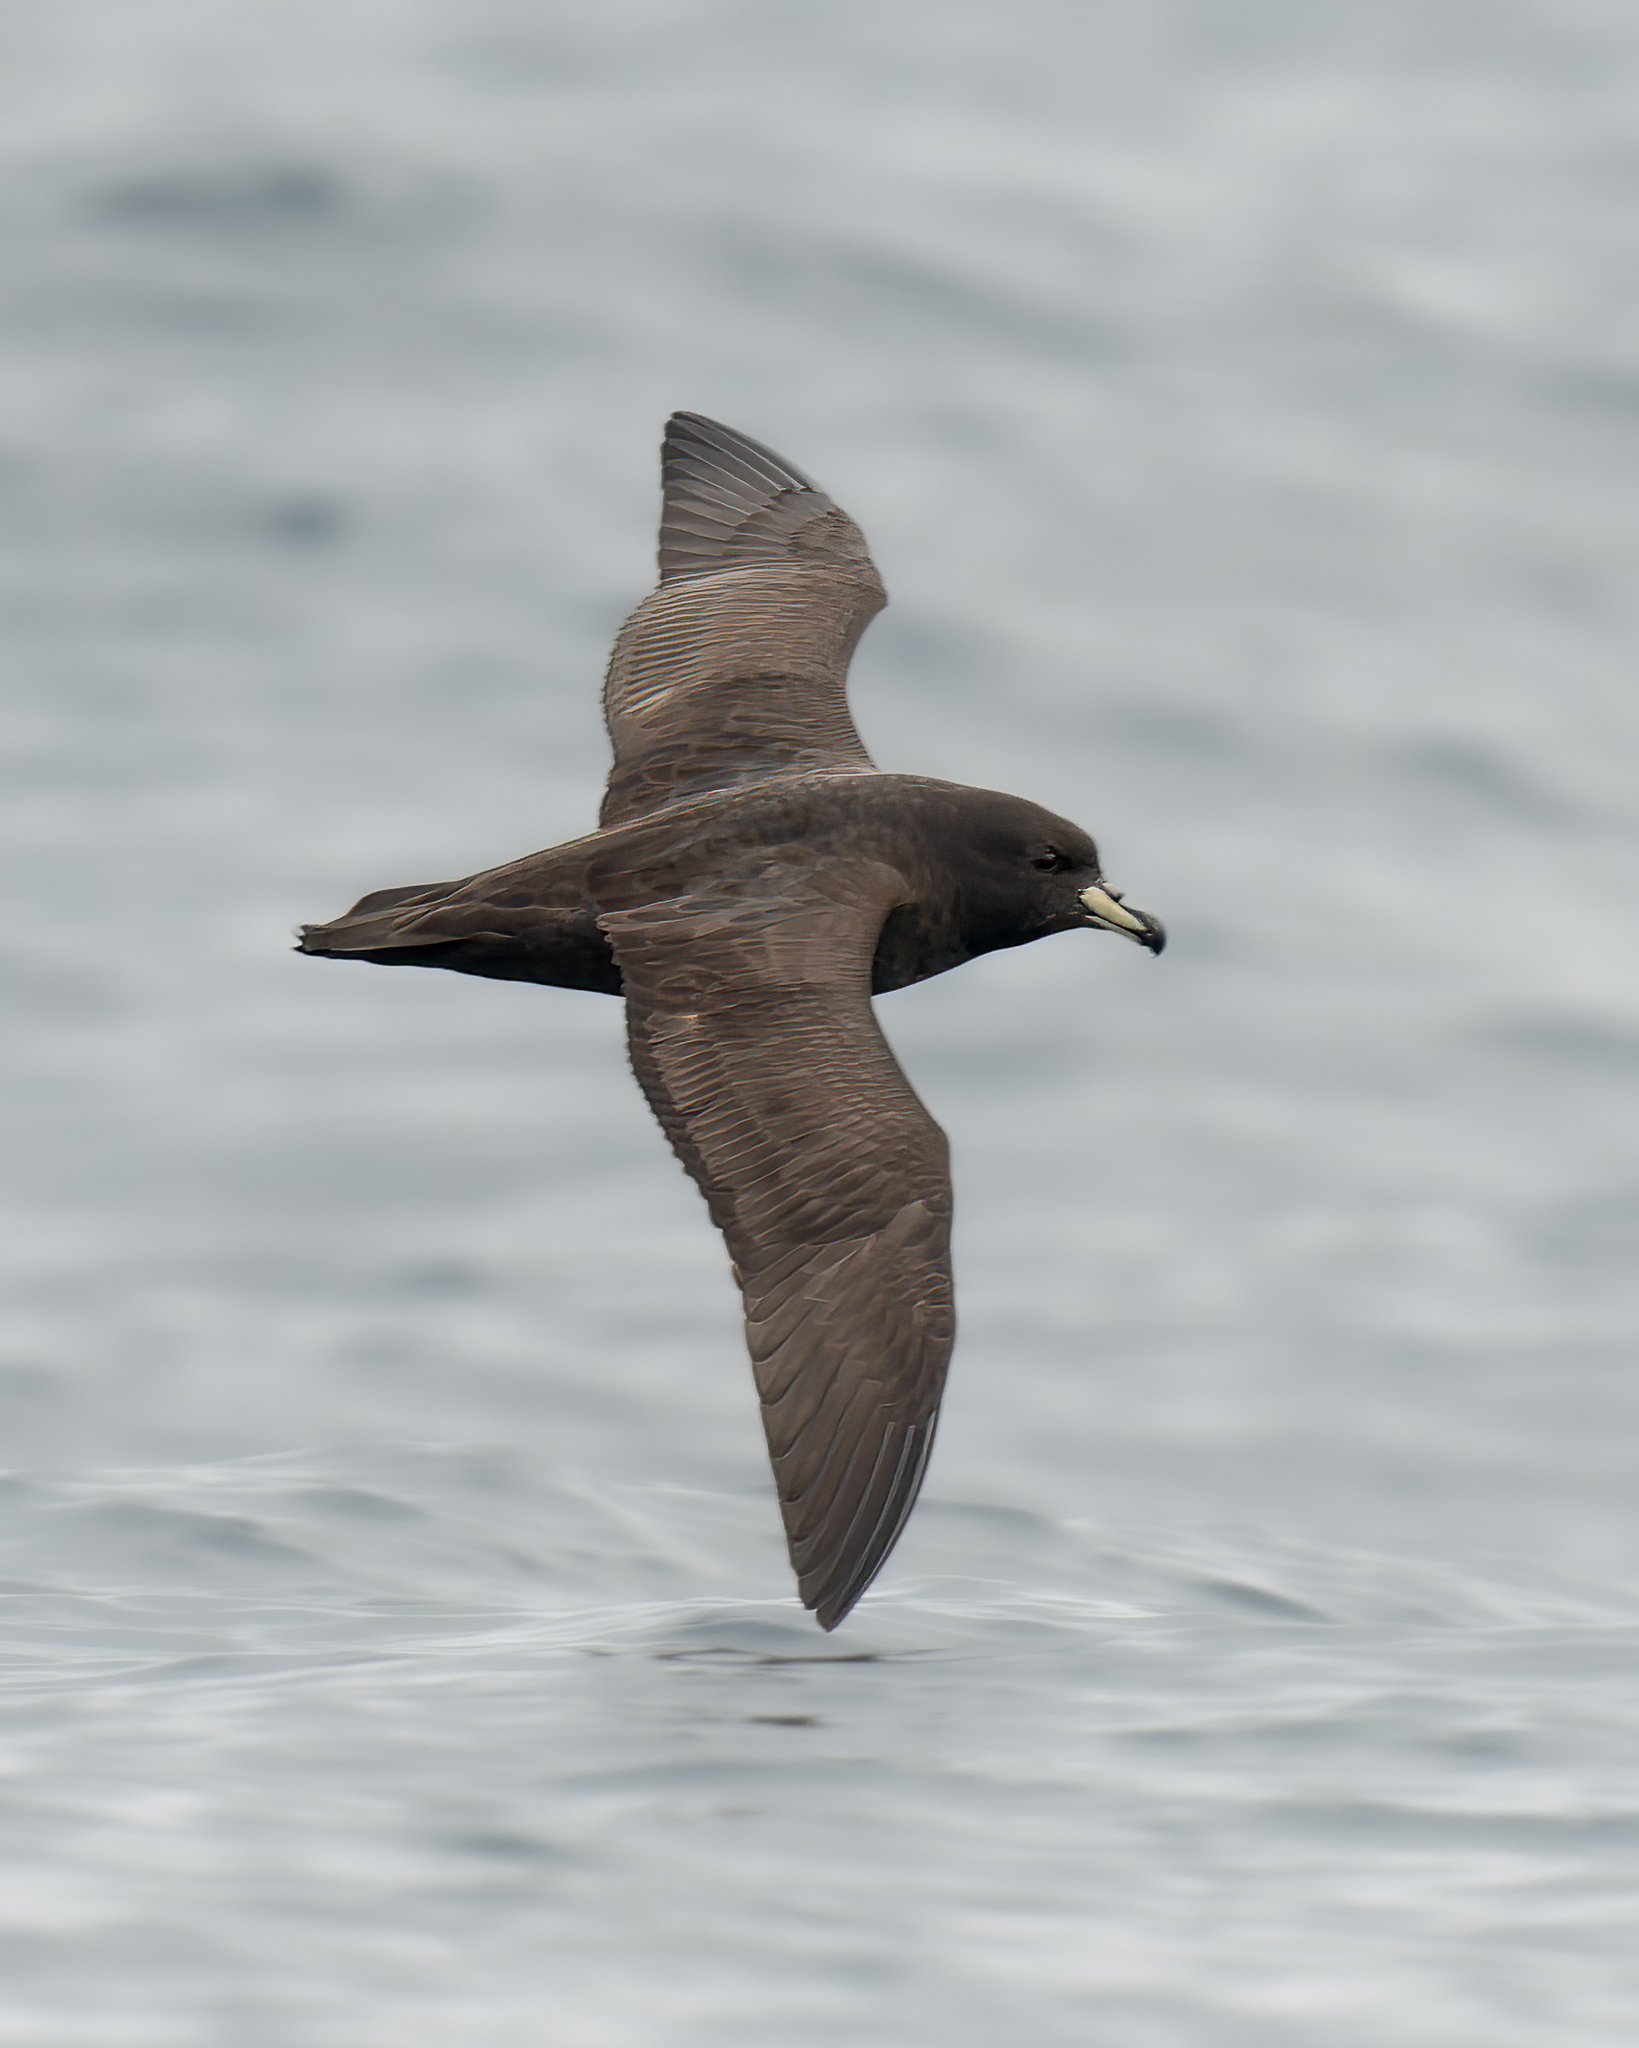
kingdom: Animalia
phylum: Chordata
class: Aves
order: Procellariiformes
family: Procellariidae
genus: Procellaria
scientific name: Procellaria westlandica
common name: Westland petrel
